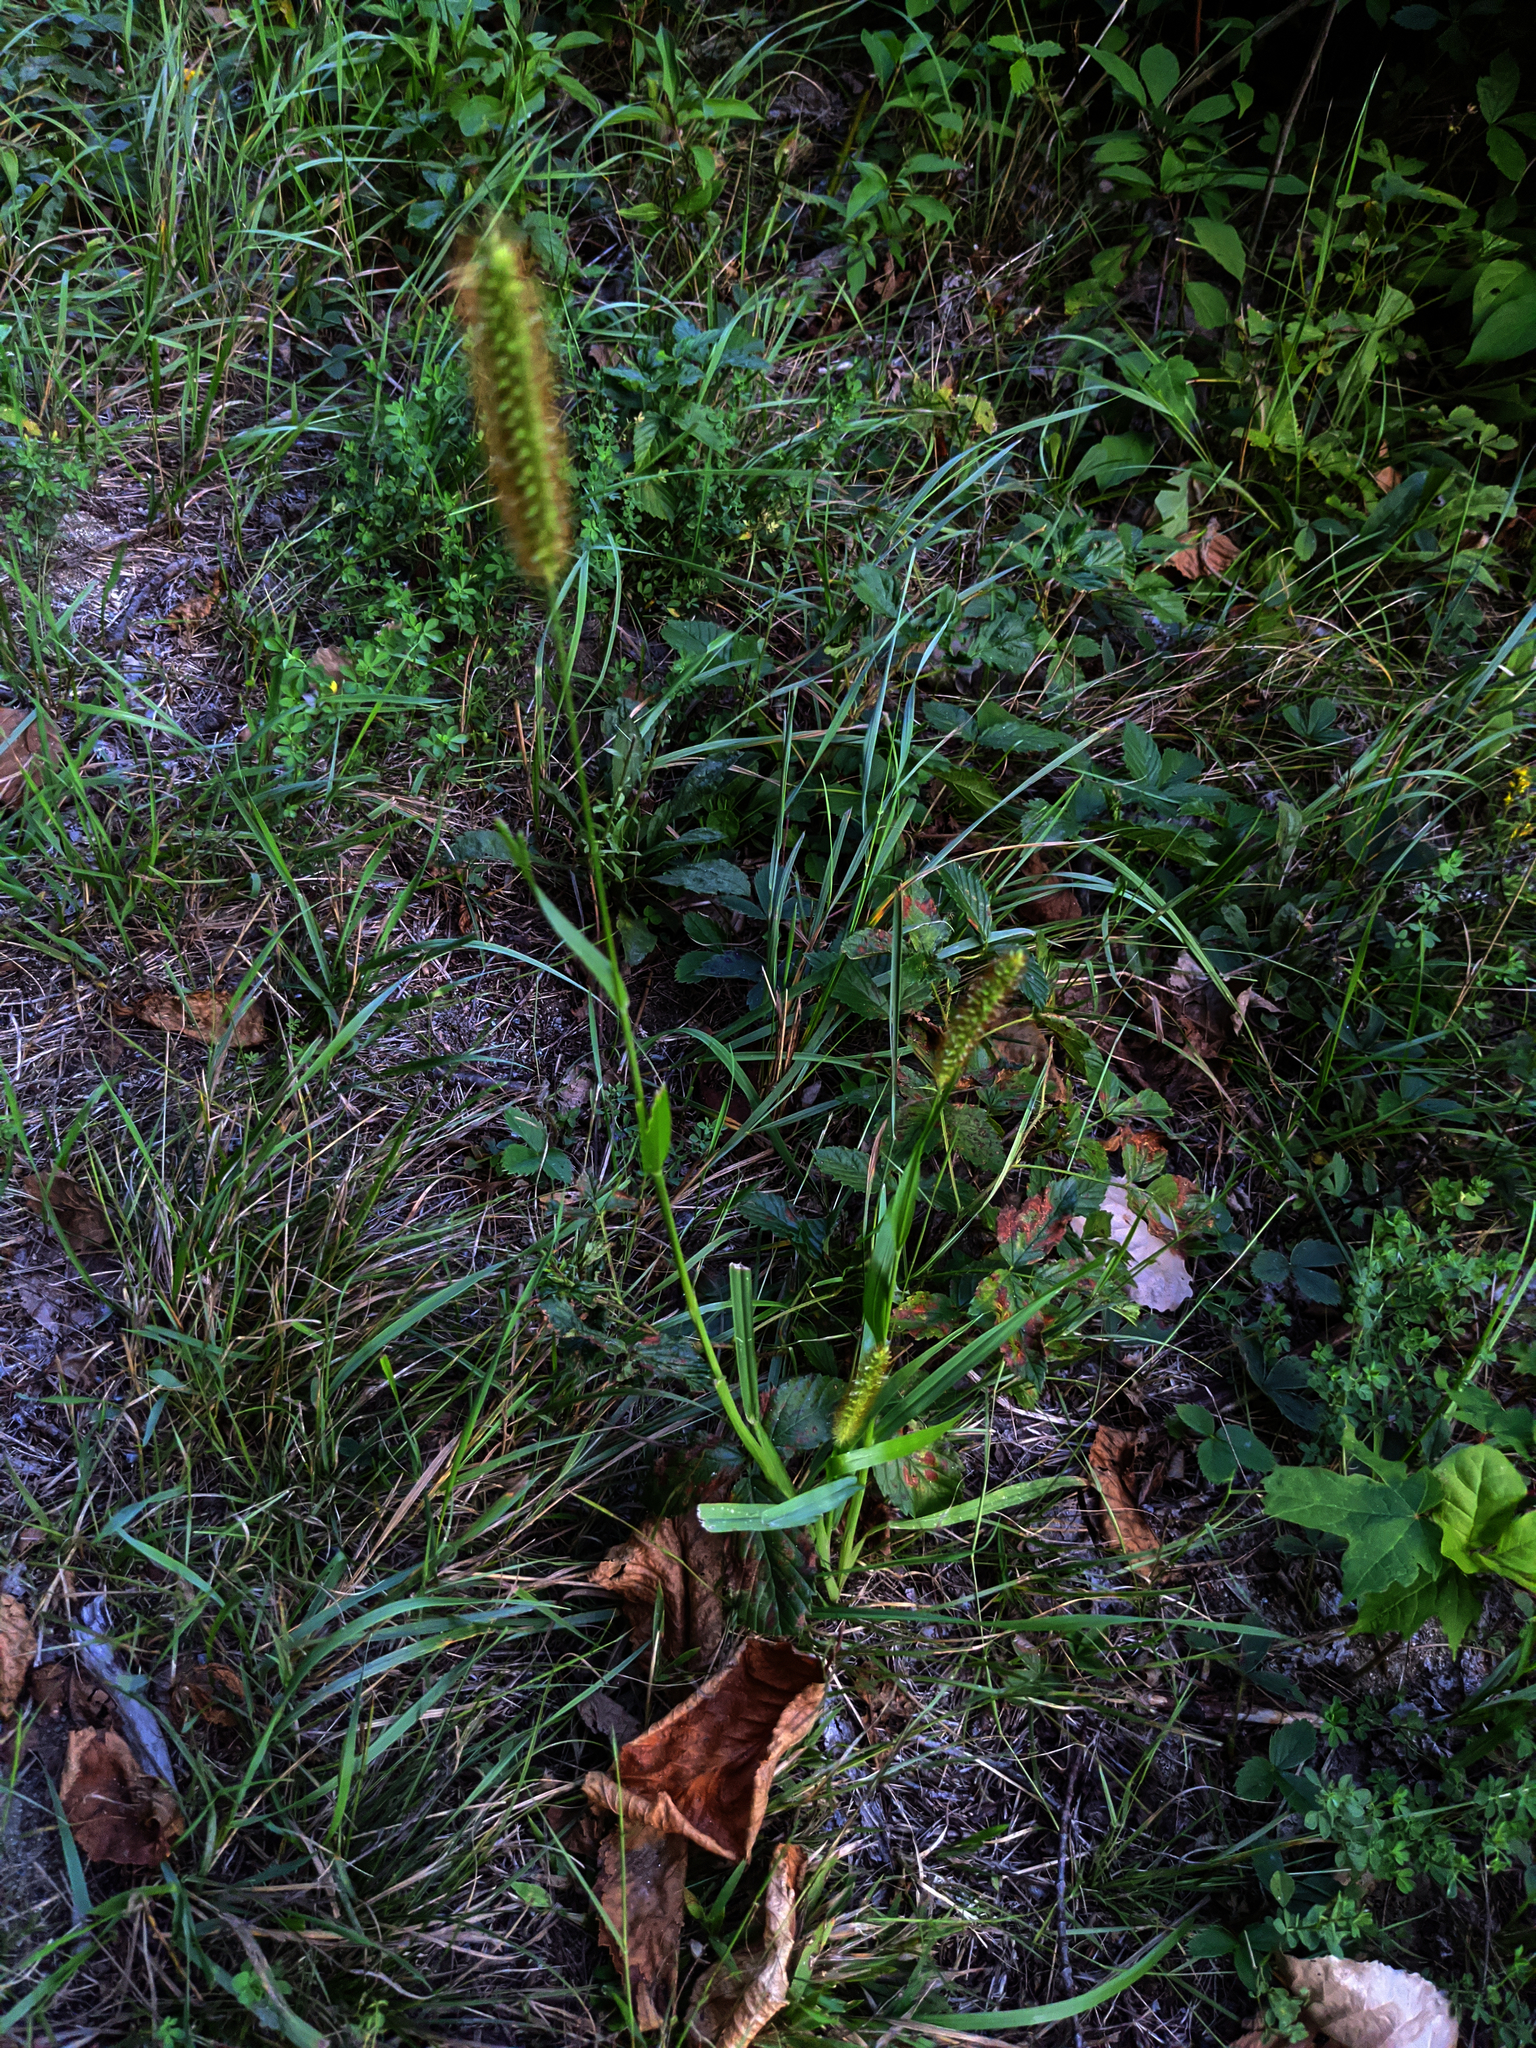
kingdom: Plantae
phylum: Tracheophyta
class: Liliopsida
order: Poales
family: Poaceae
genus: Setaria
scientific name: Setaria pumila
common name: Yellow bristle-grass
